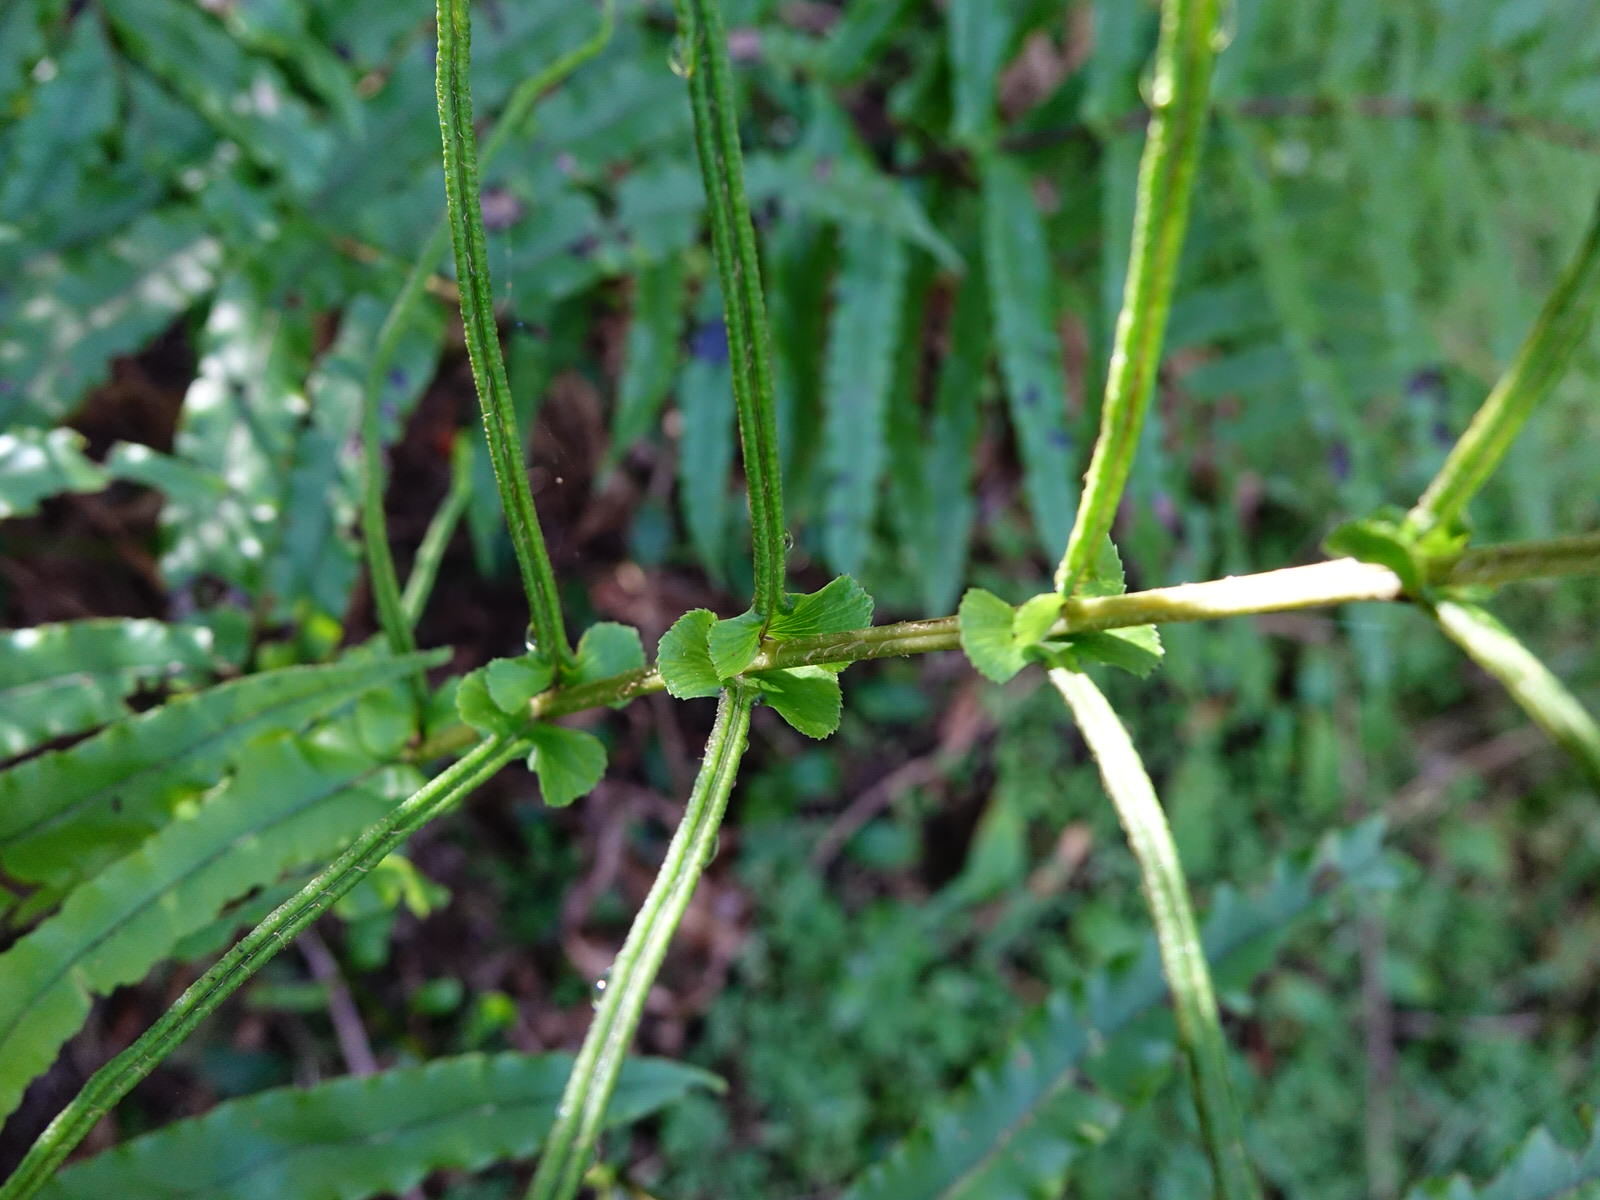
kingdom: Plantae
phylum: Tracheophyta
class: Polypodiopsida
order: Polypodiales
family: Blechnaceae
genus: Parablechnum
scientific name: Parablechnum novae-zelandiae
